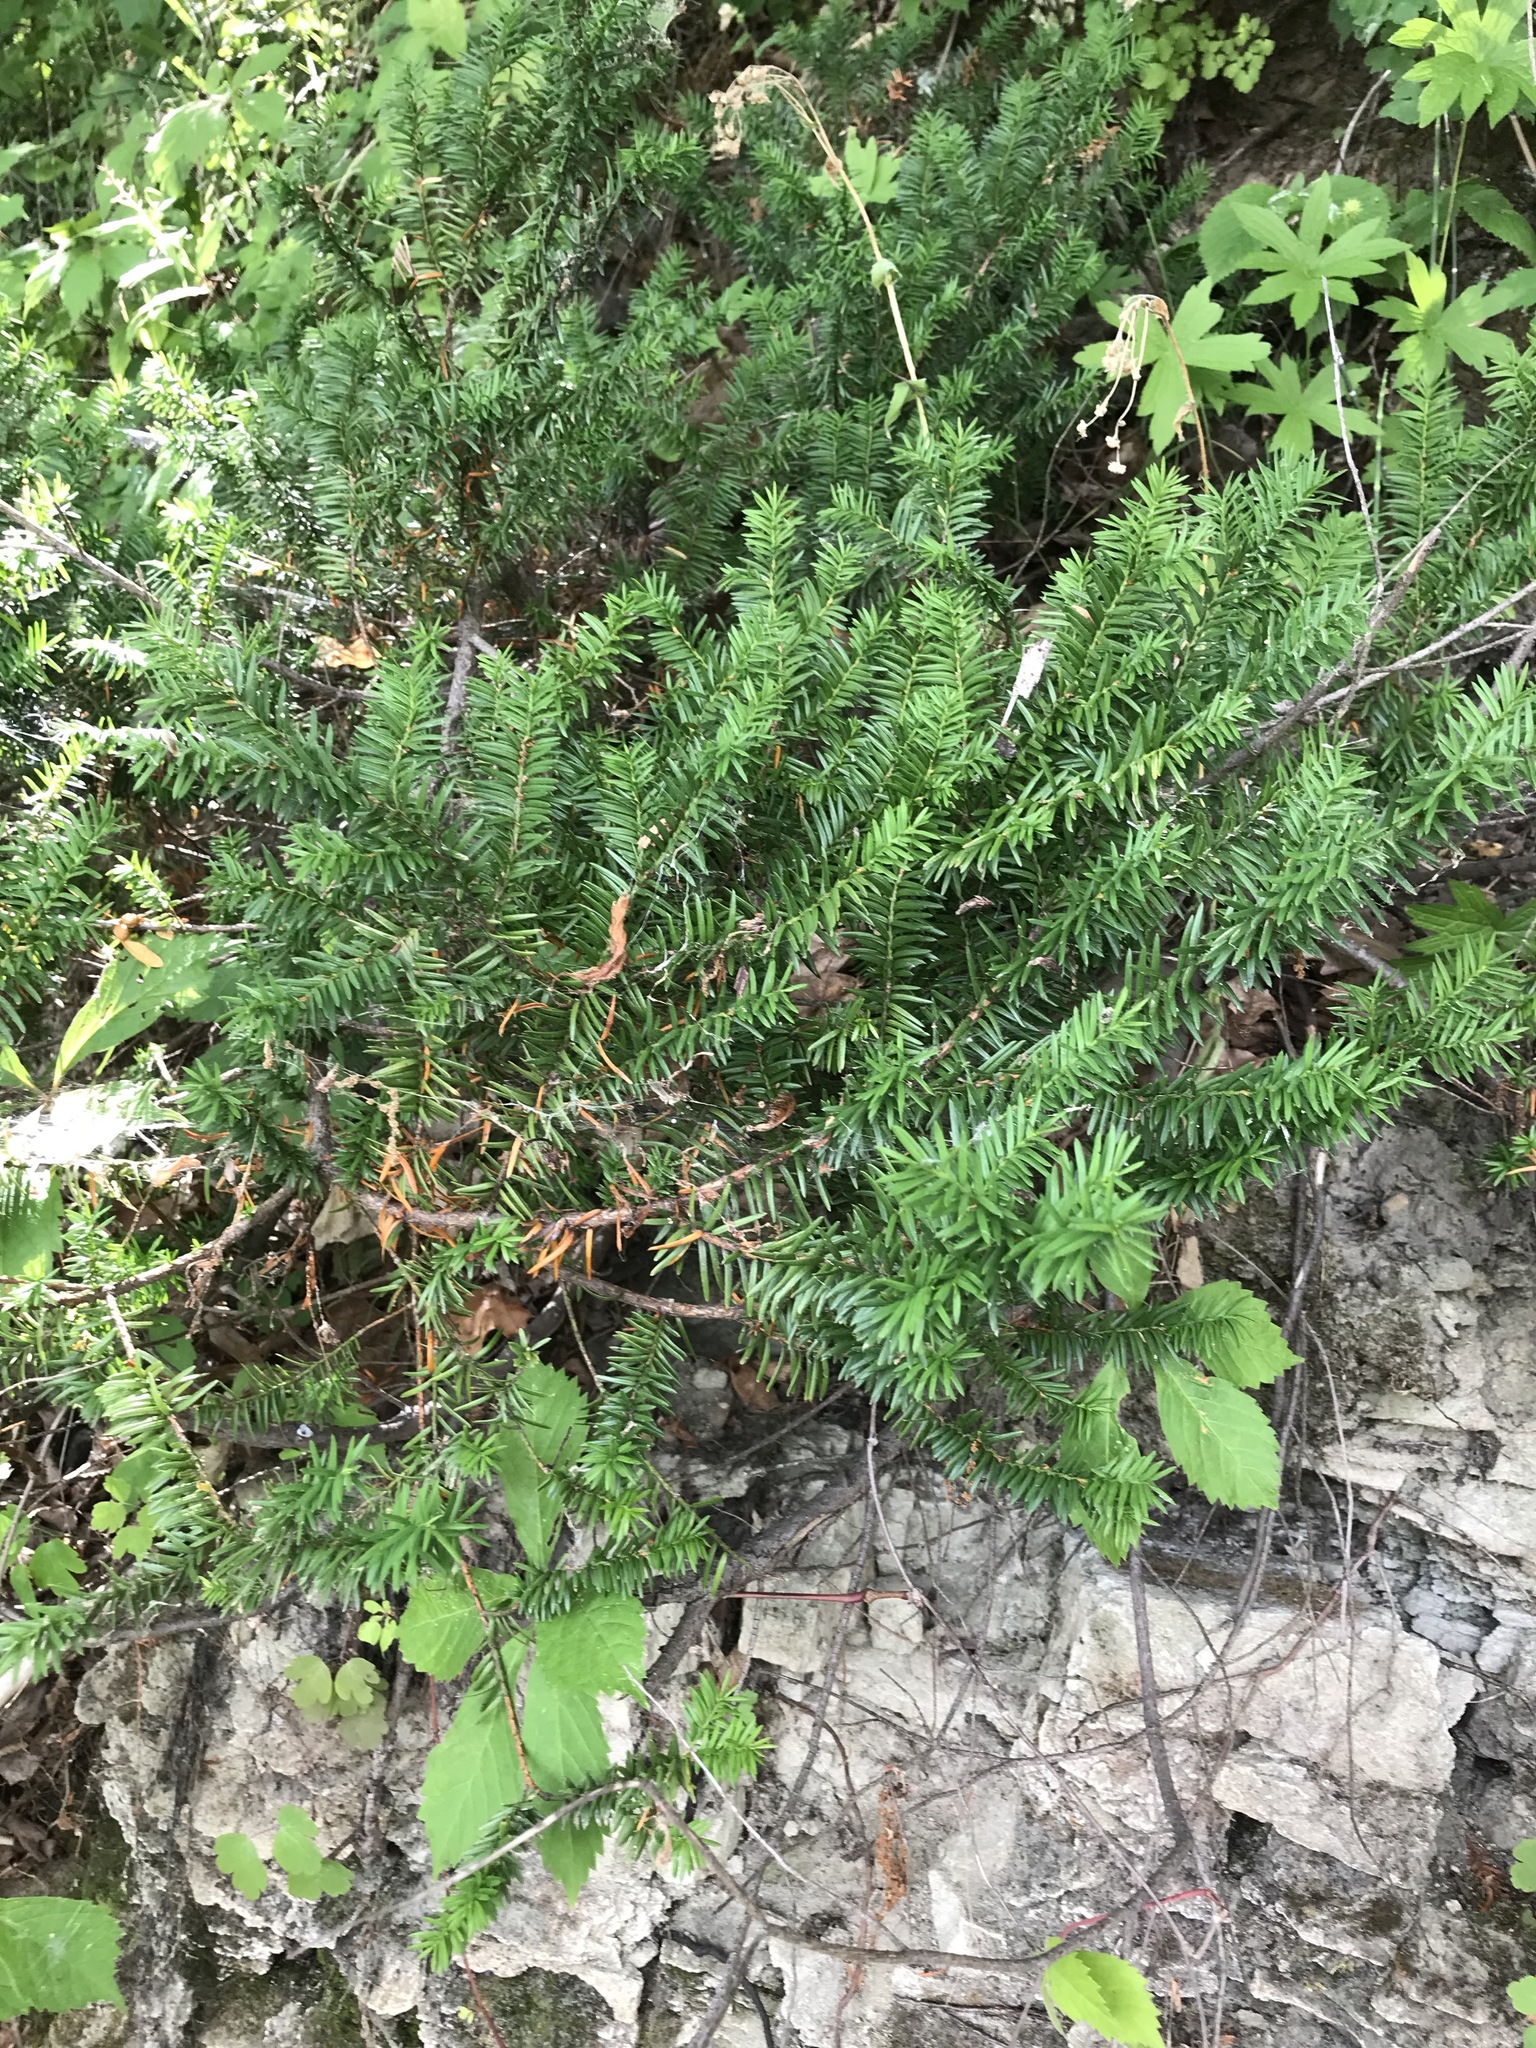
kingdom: Plantae
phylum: Tracheophyta
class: Pinopsida
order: Pinales
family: Taxaceae
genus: Taxus
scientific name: Taxus canadensis
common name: American yew
